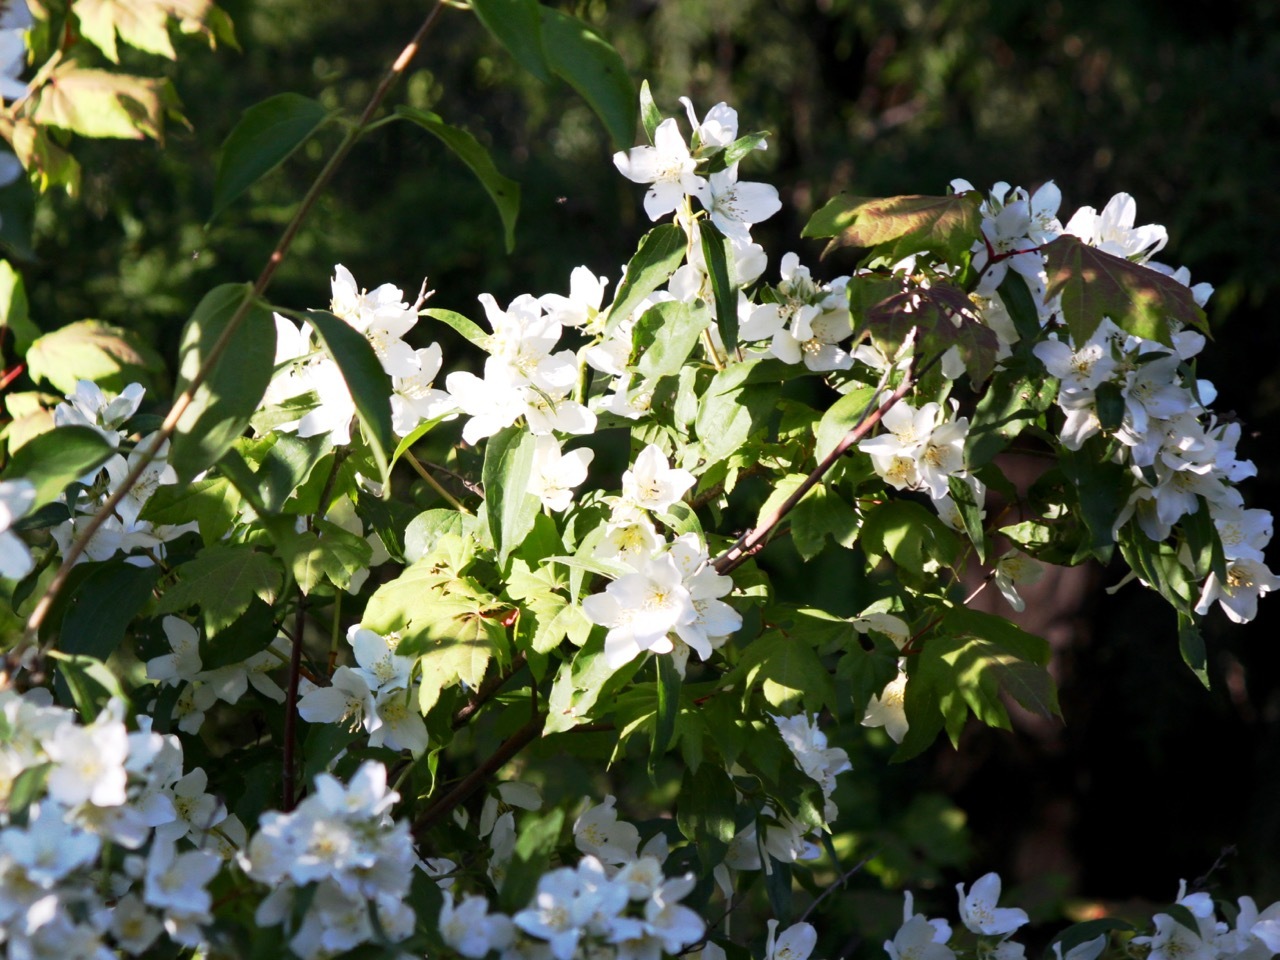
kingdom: Plantae
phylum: Tracheophyta
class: Magnoliopsida
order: Cornales
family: Hydrangeaceae
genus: Philadelphus
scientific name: Philadelphus lewisii
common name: Lewis's mock orange
